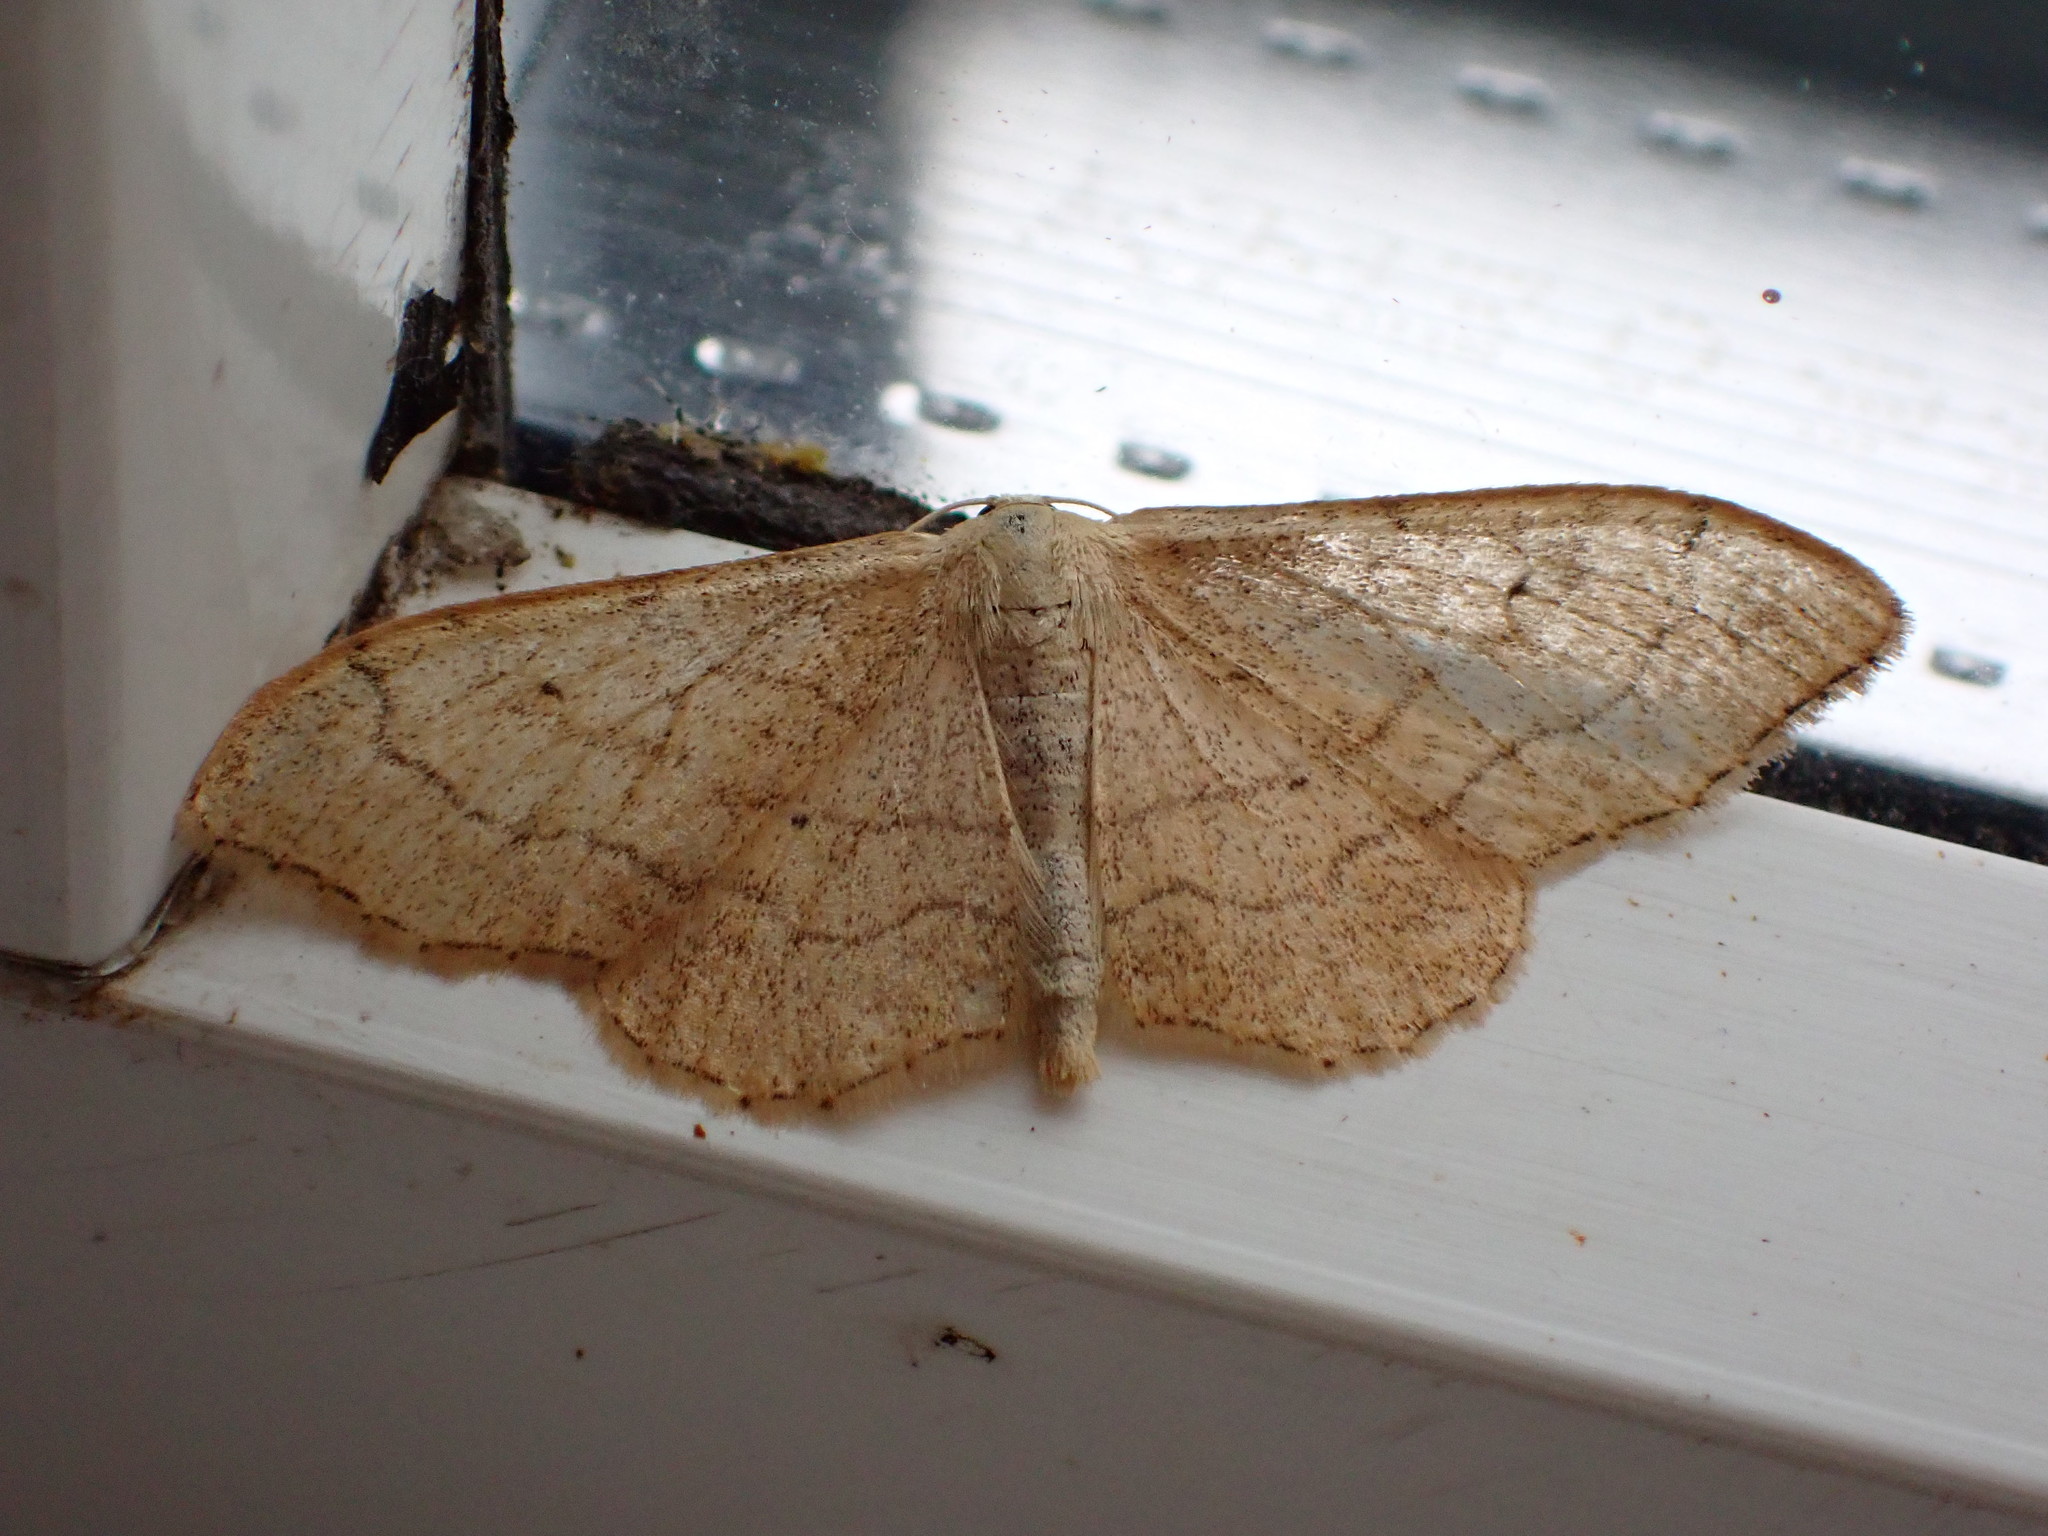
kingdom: Animalia
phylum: Arthropoda
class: Insecta
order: Lepidoptera
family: Geometridae
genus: Idaea
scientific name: Idaea aversata
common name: Riband wave
